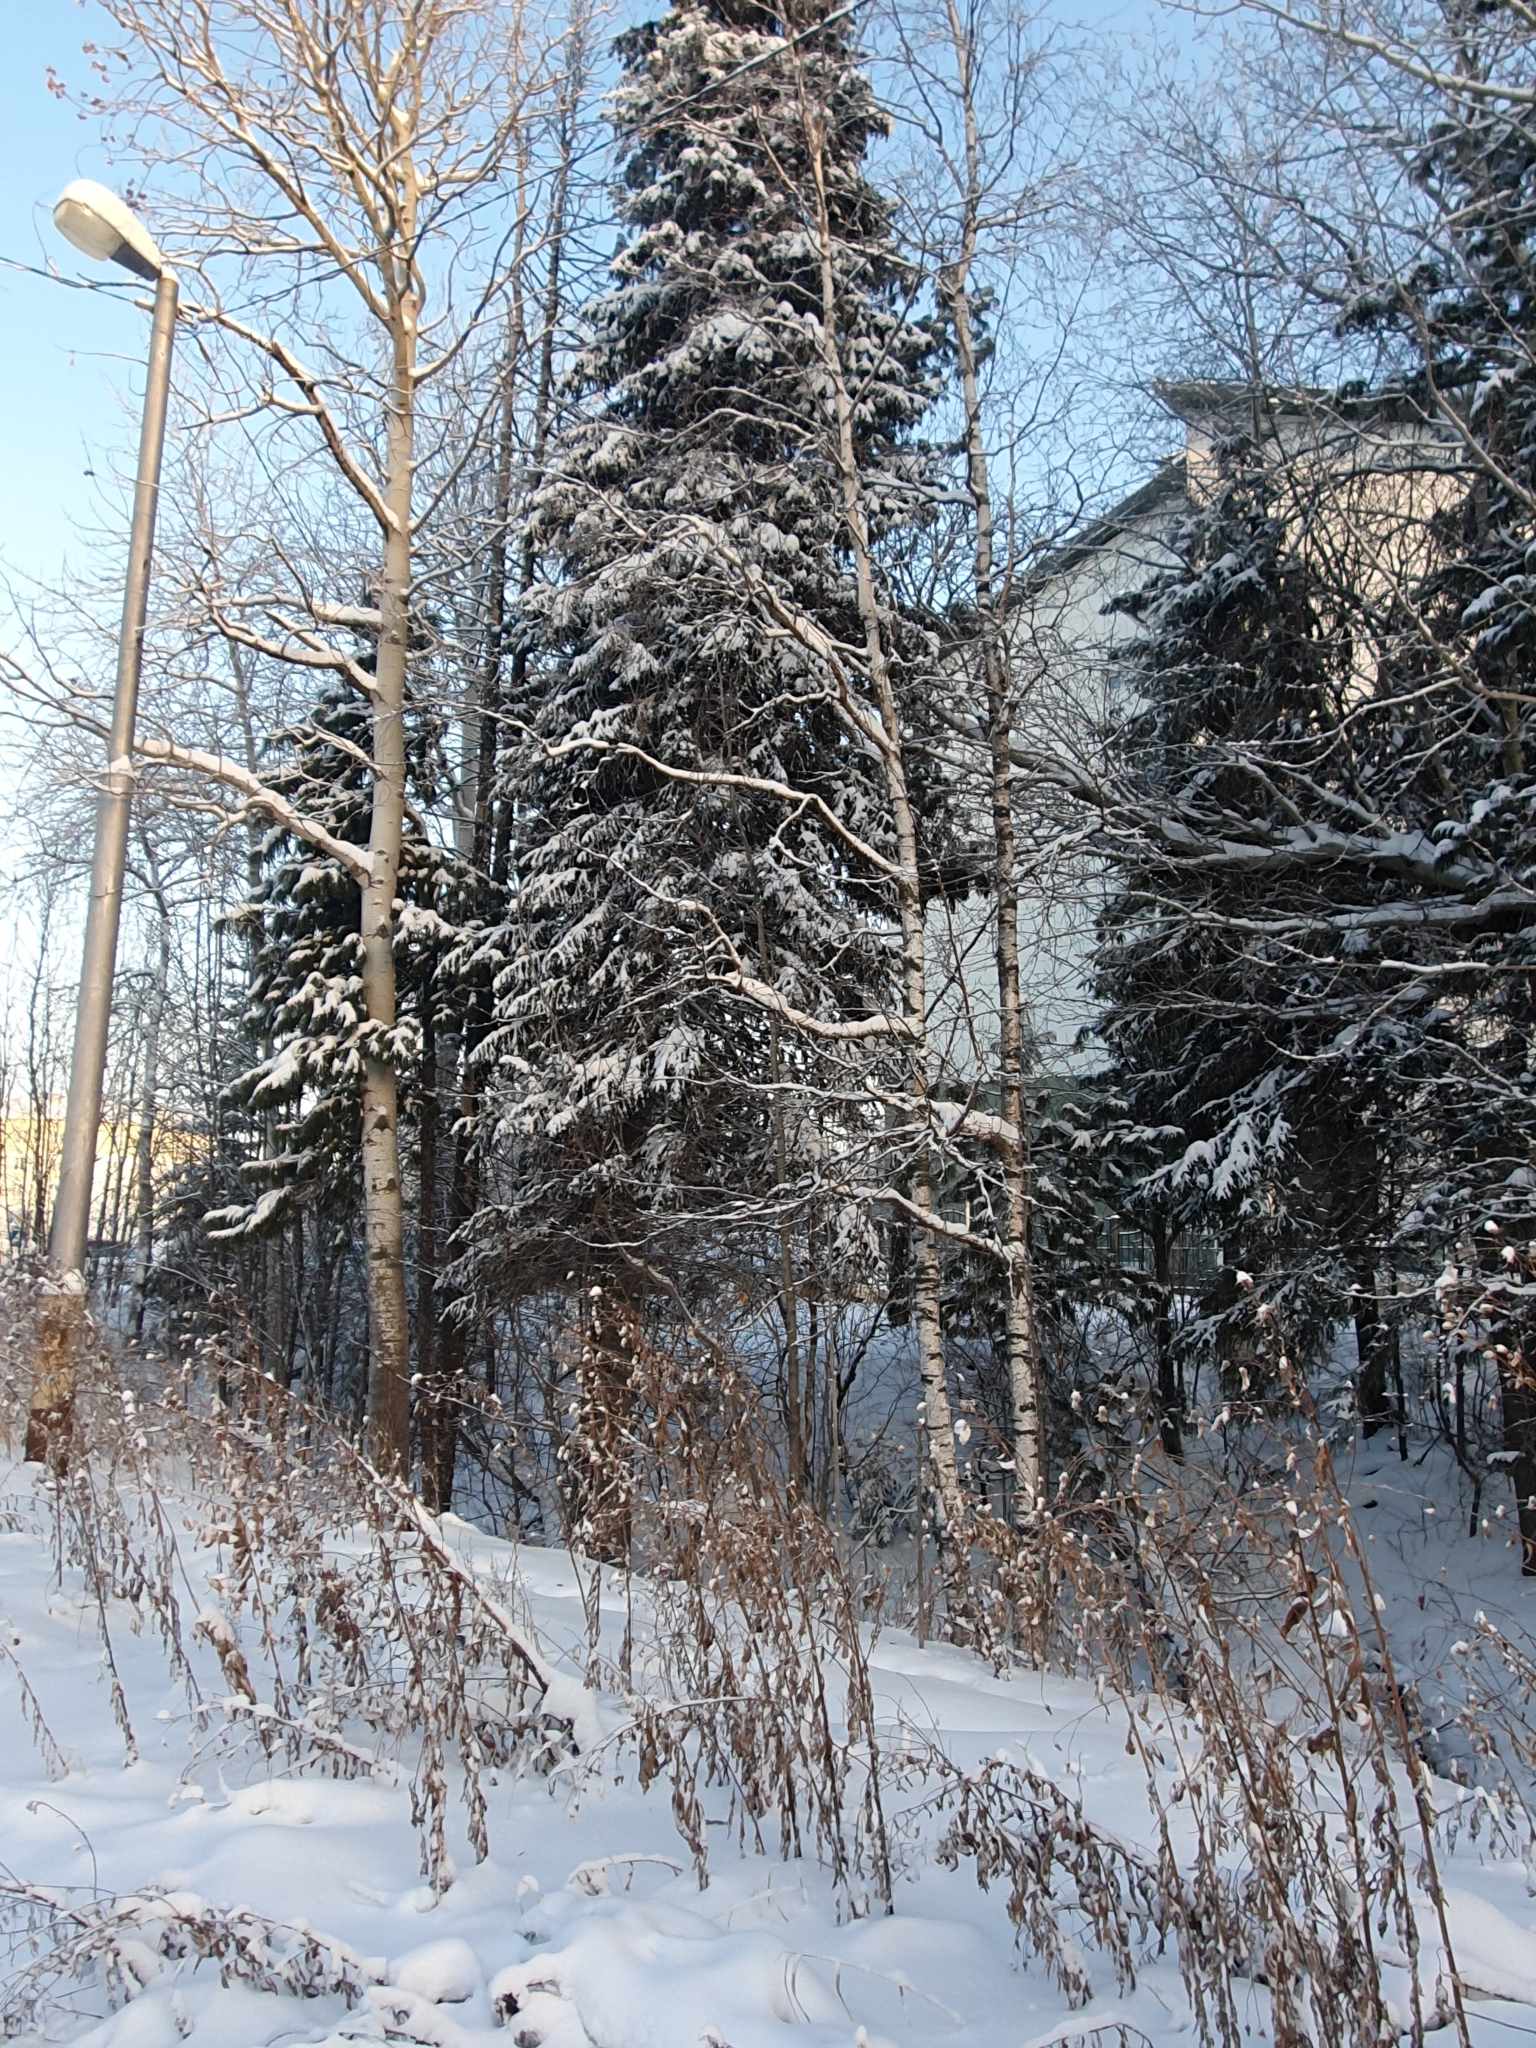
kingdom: Plantae
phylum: Tracheophyta
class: Pinopsida
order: Pinales
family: Pinaceae
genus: Picea
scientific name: Picea obovata
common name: Siberian spruce
